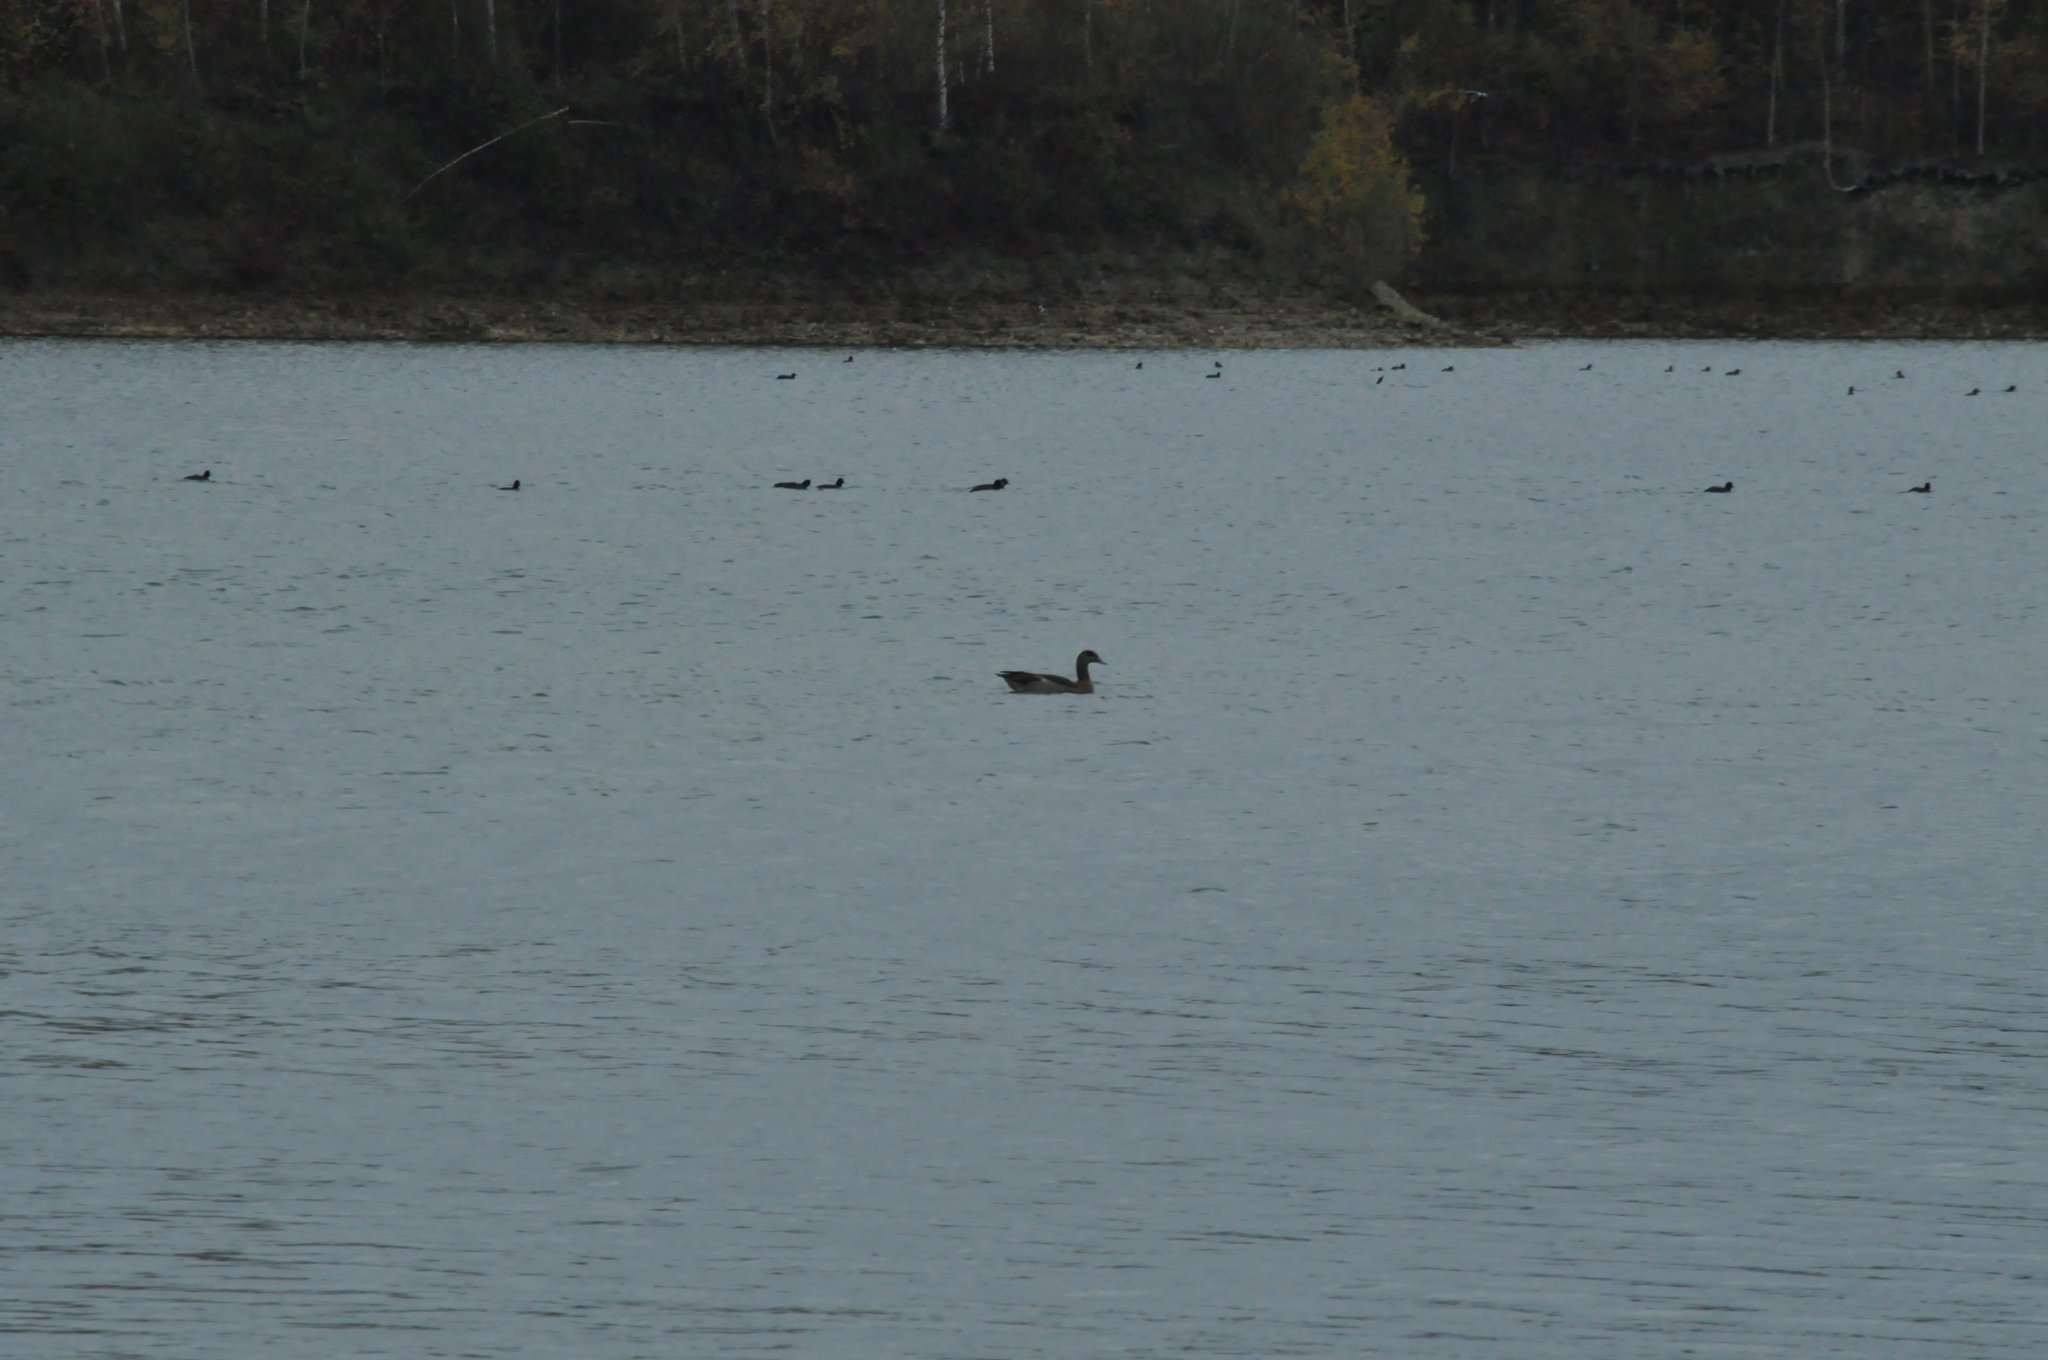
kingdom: Animalia
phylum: Chordata
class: Aves
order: Anseriformes
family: Anatidae
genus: Alopochen
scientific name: Alopochen aegyptiaca
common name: Egyptian goose
